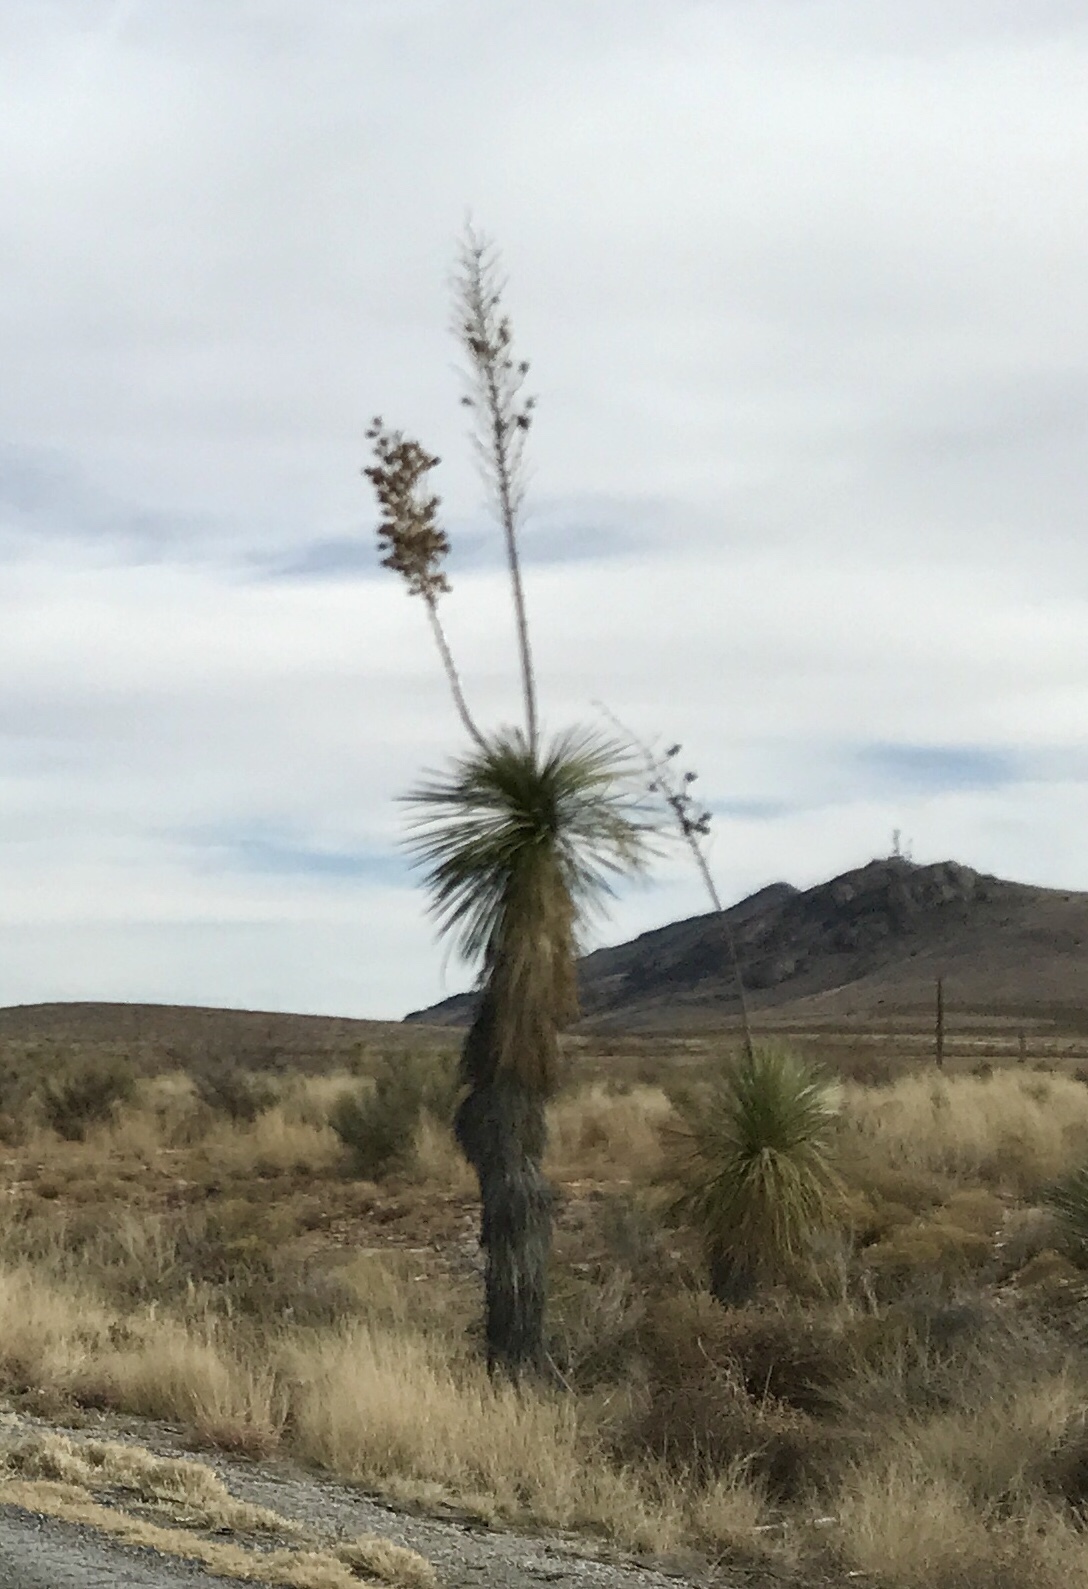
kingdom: Plantae
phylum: Tracheophyta
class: Liliopsida
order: Asparagales
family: Asparagaceae
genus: Yucca
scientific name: Yucca elata
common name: Palmella
